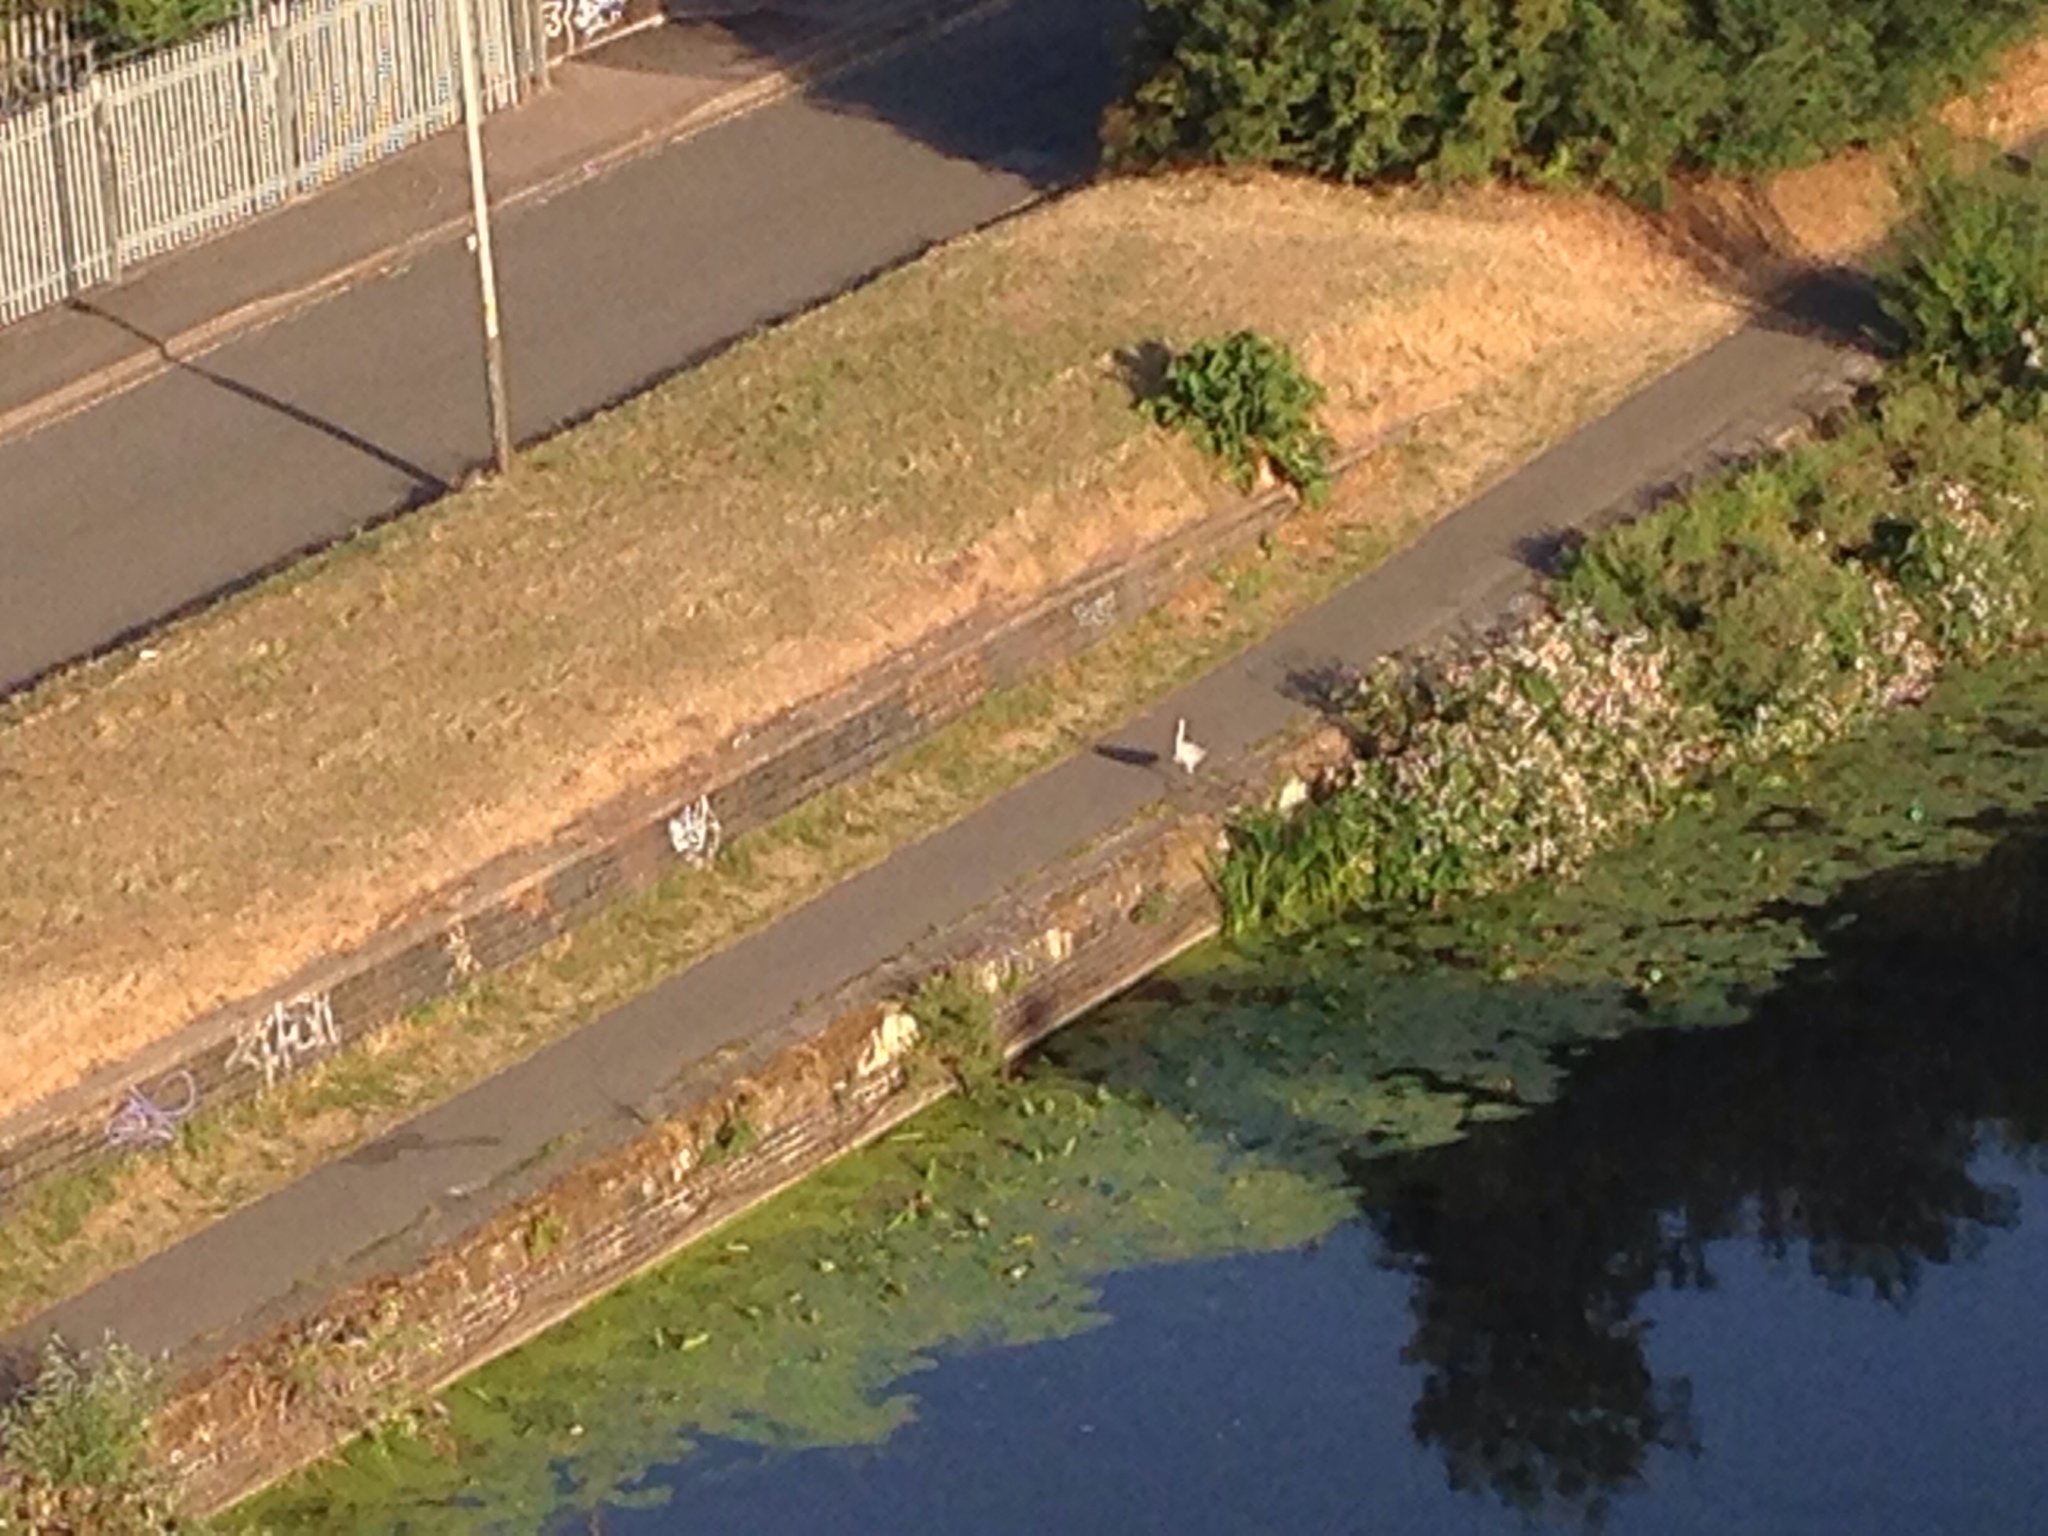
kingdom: Animalia
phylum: Chordata
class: Aves
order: Pelecaniformes
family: Ardeidae
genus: Ardea
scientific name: Ardea cinerea
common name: Grey heron
